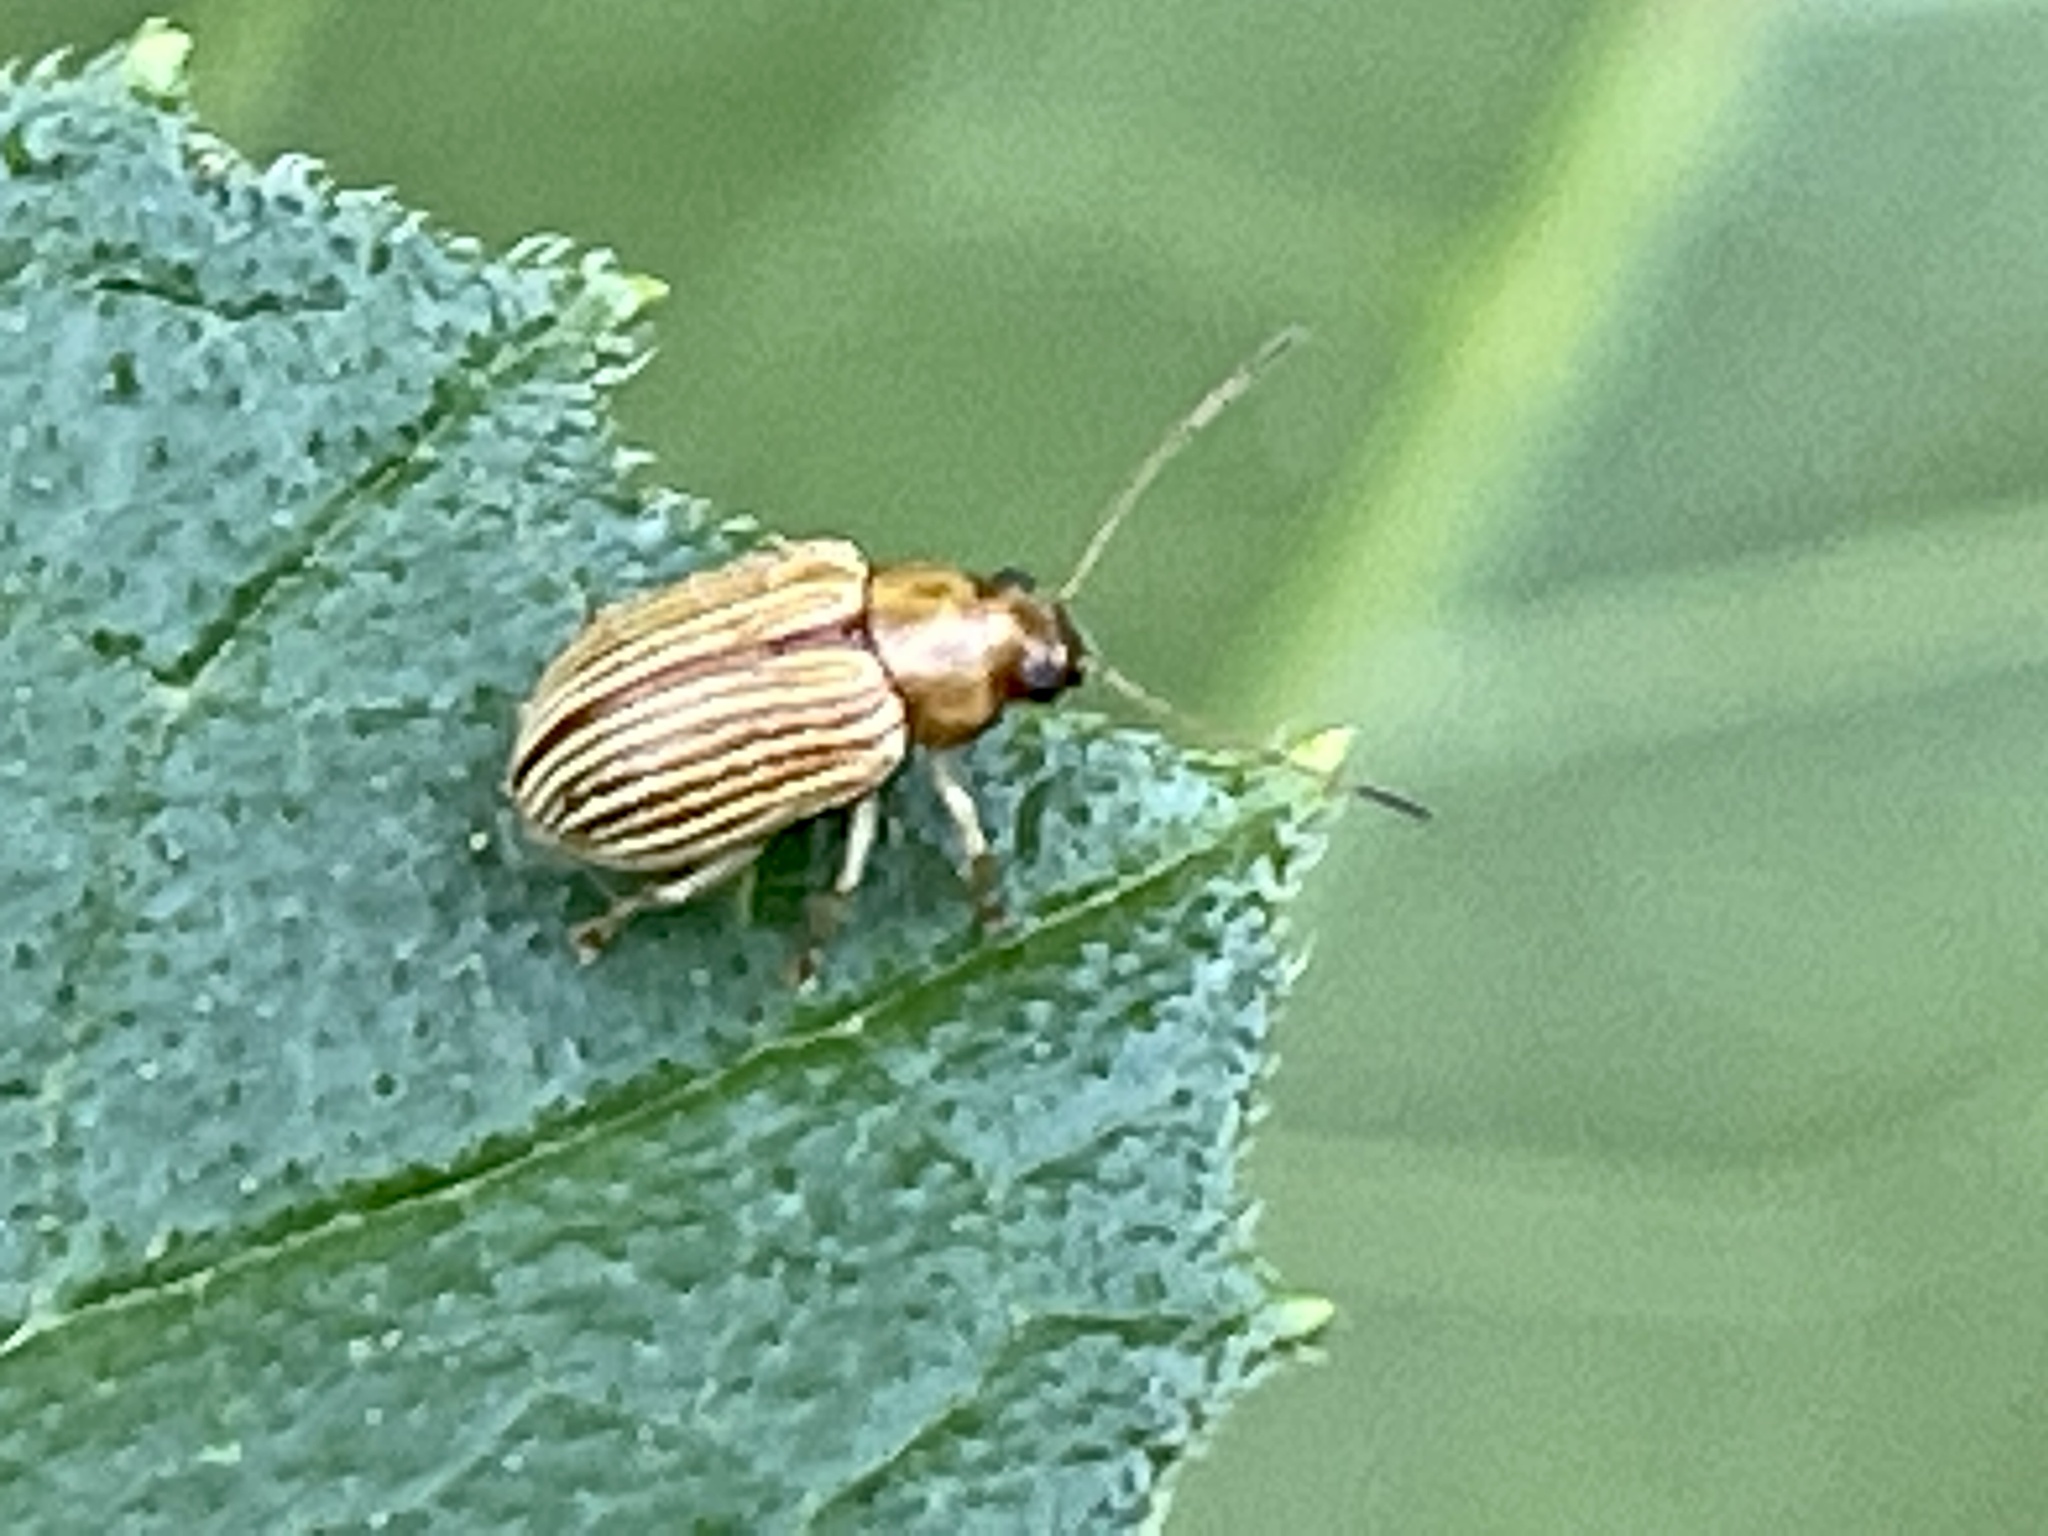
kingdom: Animalia
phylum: Arthropoda
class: Insecta
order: Coleoptera
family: Chrysomelidae
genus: Colaspis
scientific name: Colaspis brunnea
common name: Grape colaspis
